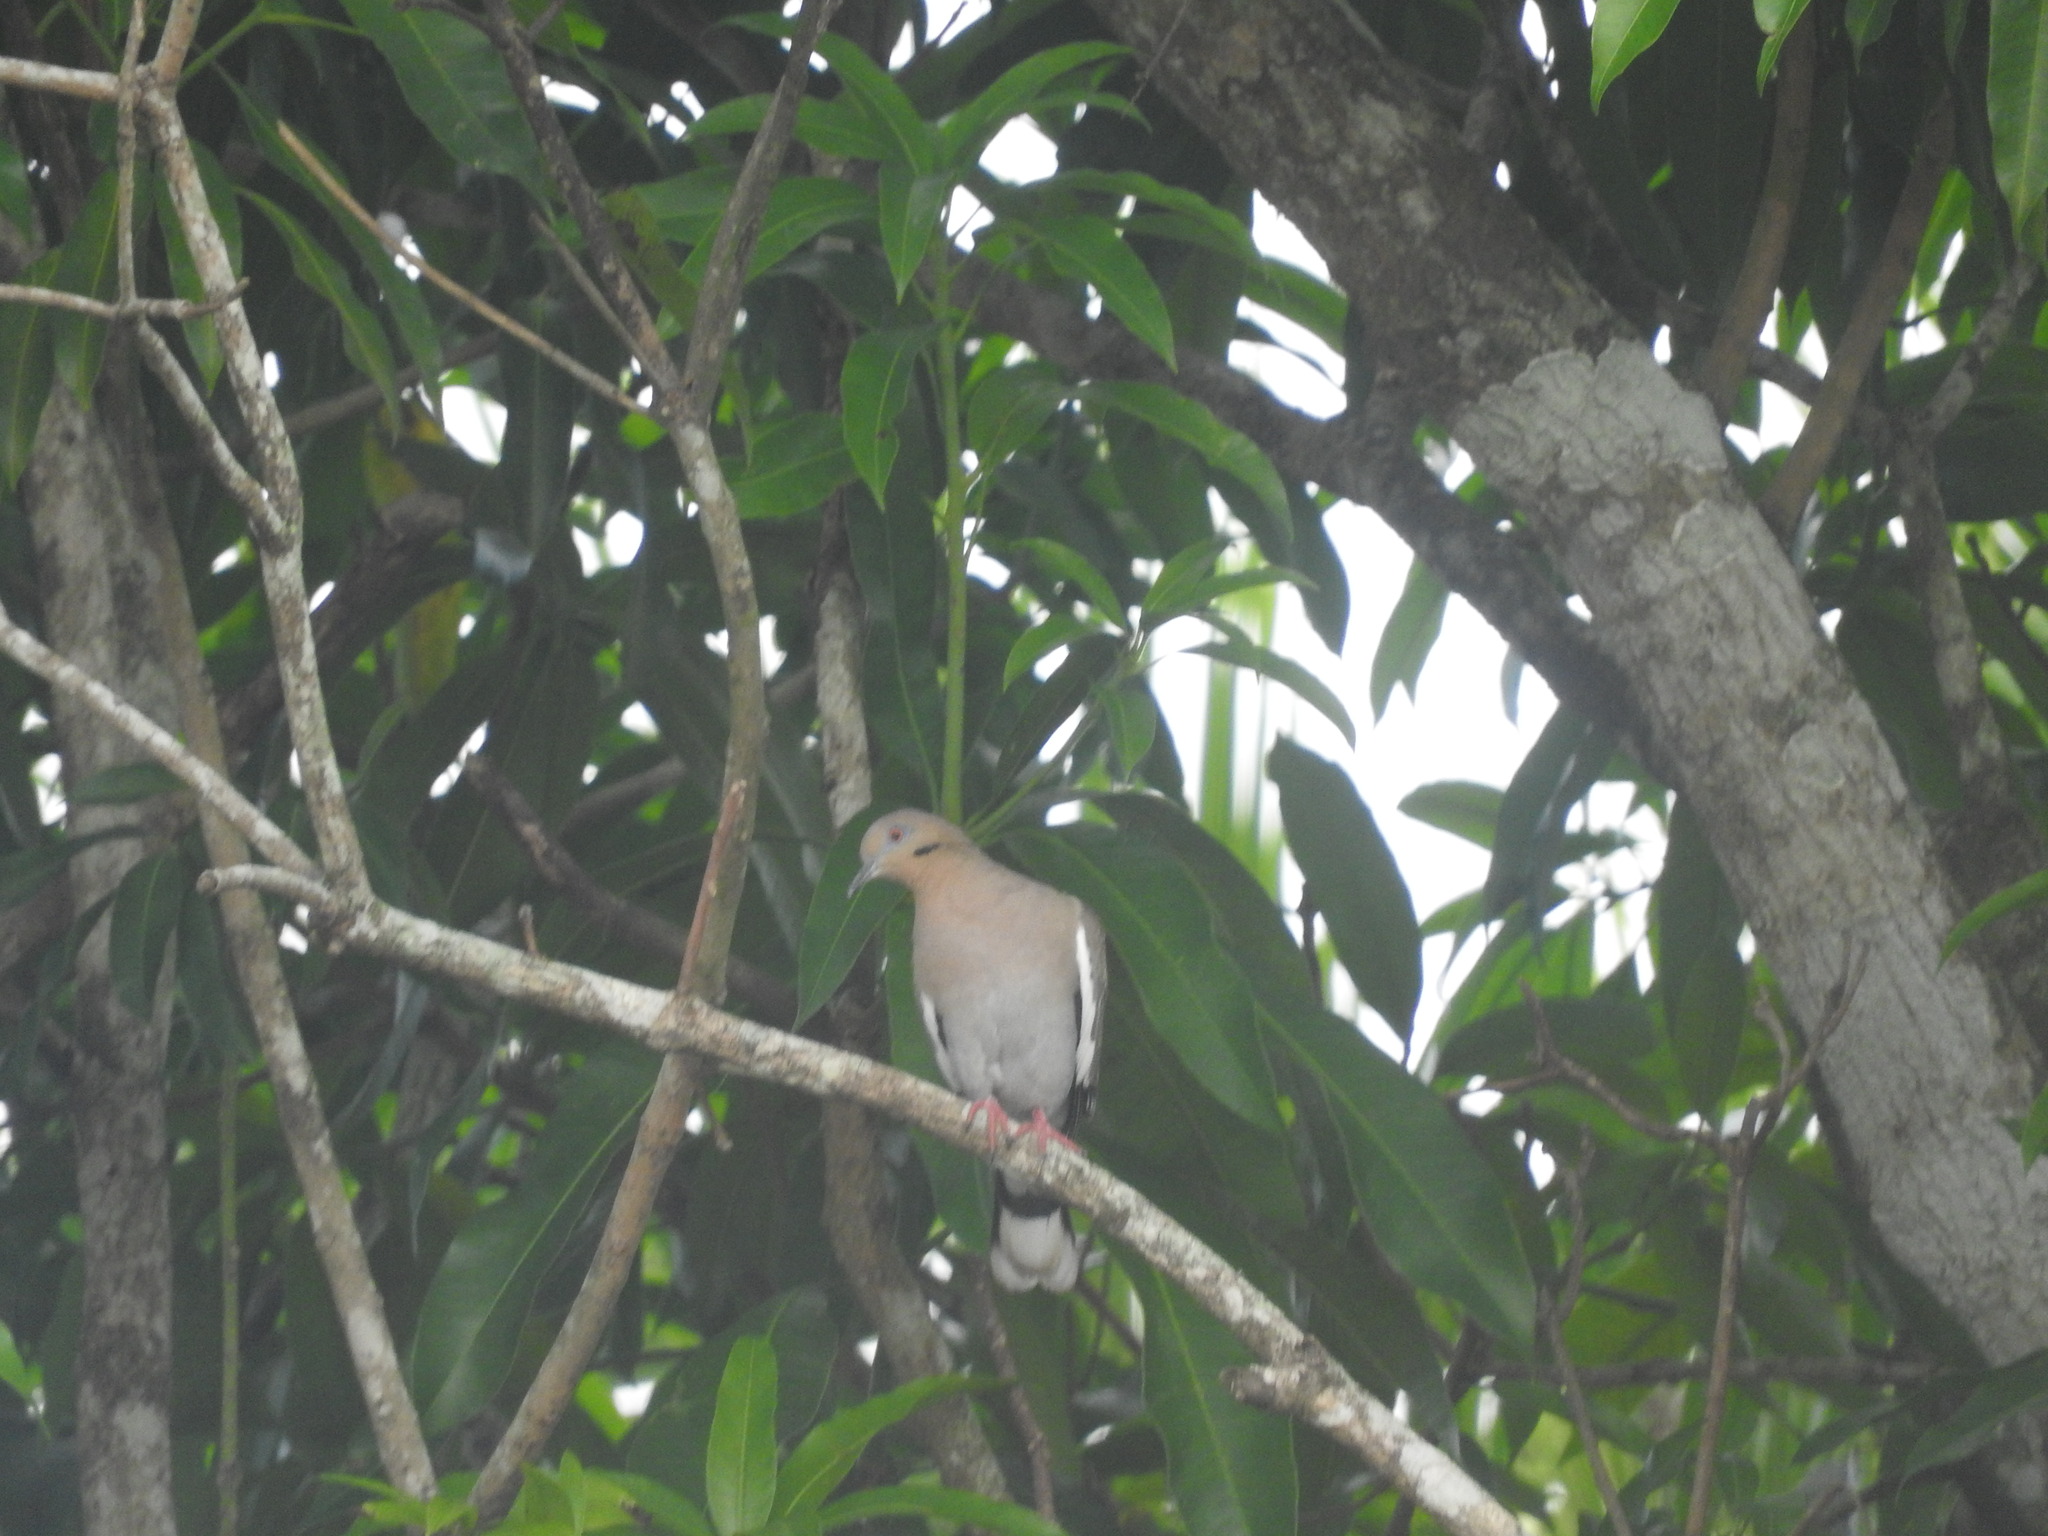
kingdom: Animalia
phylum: Chordata
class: Aves
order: Columbiformes
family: Columbidae
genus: Zenaida
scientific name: Zenaida asiatica
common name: White-winged dove
